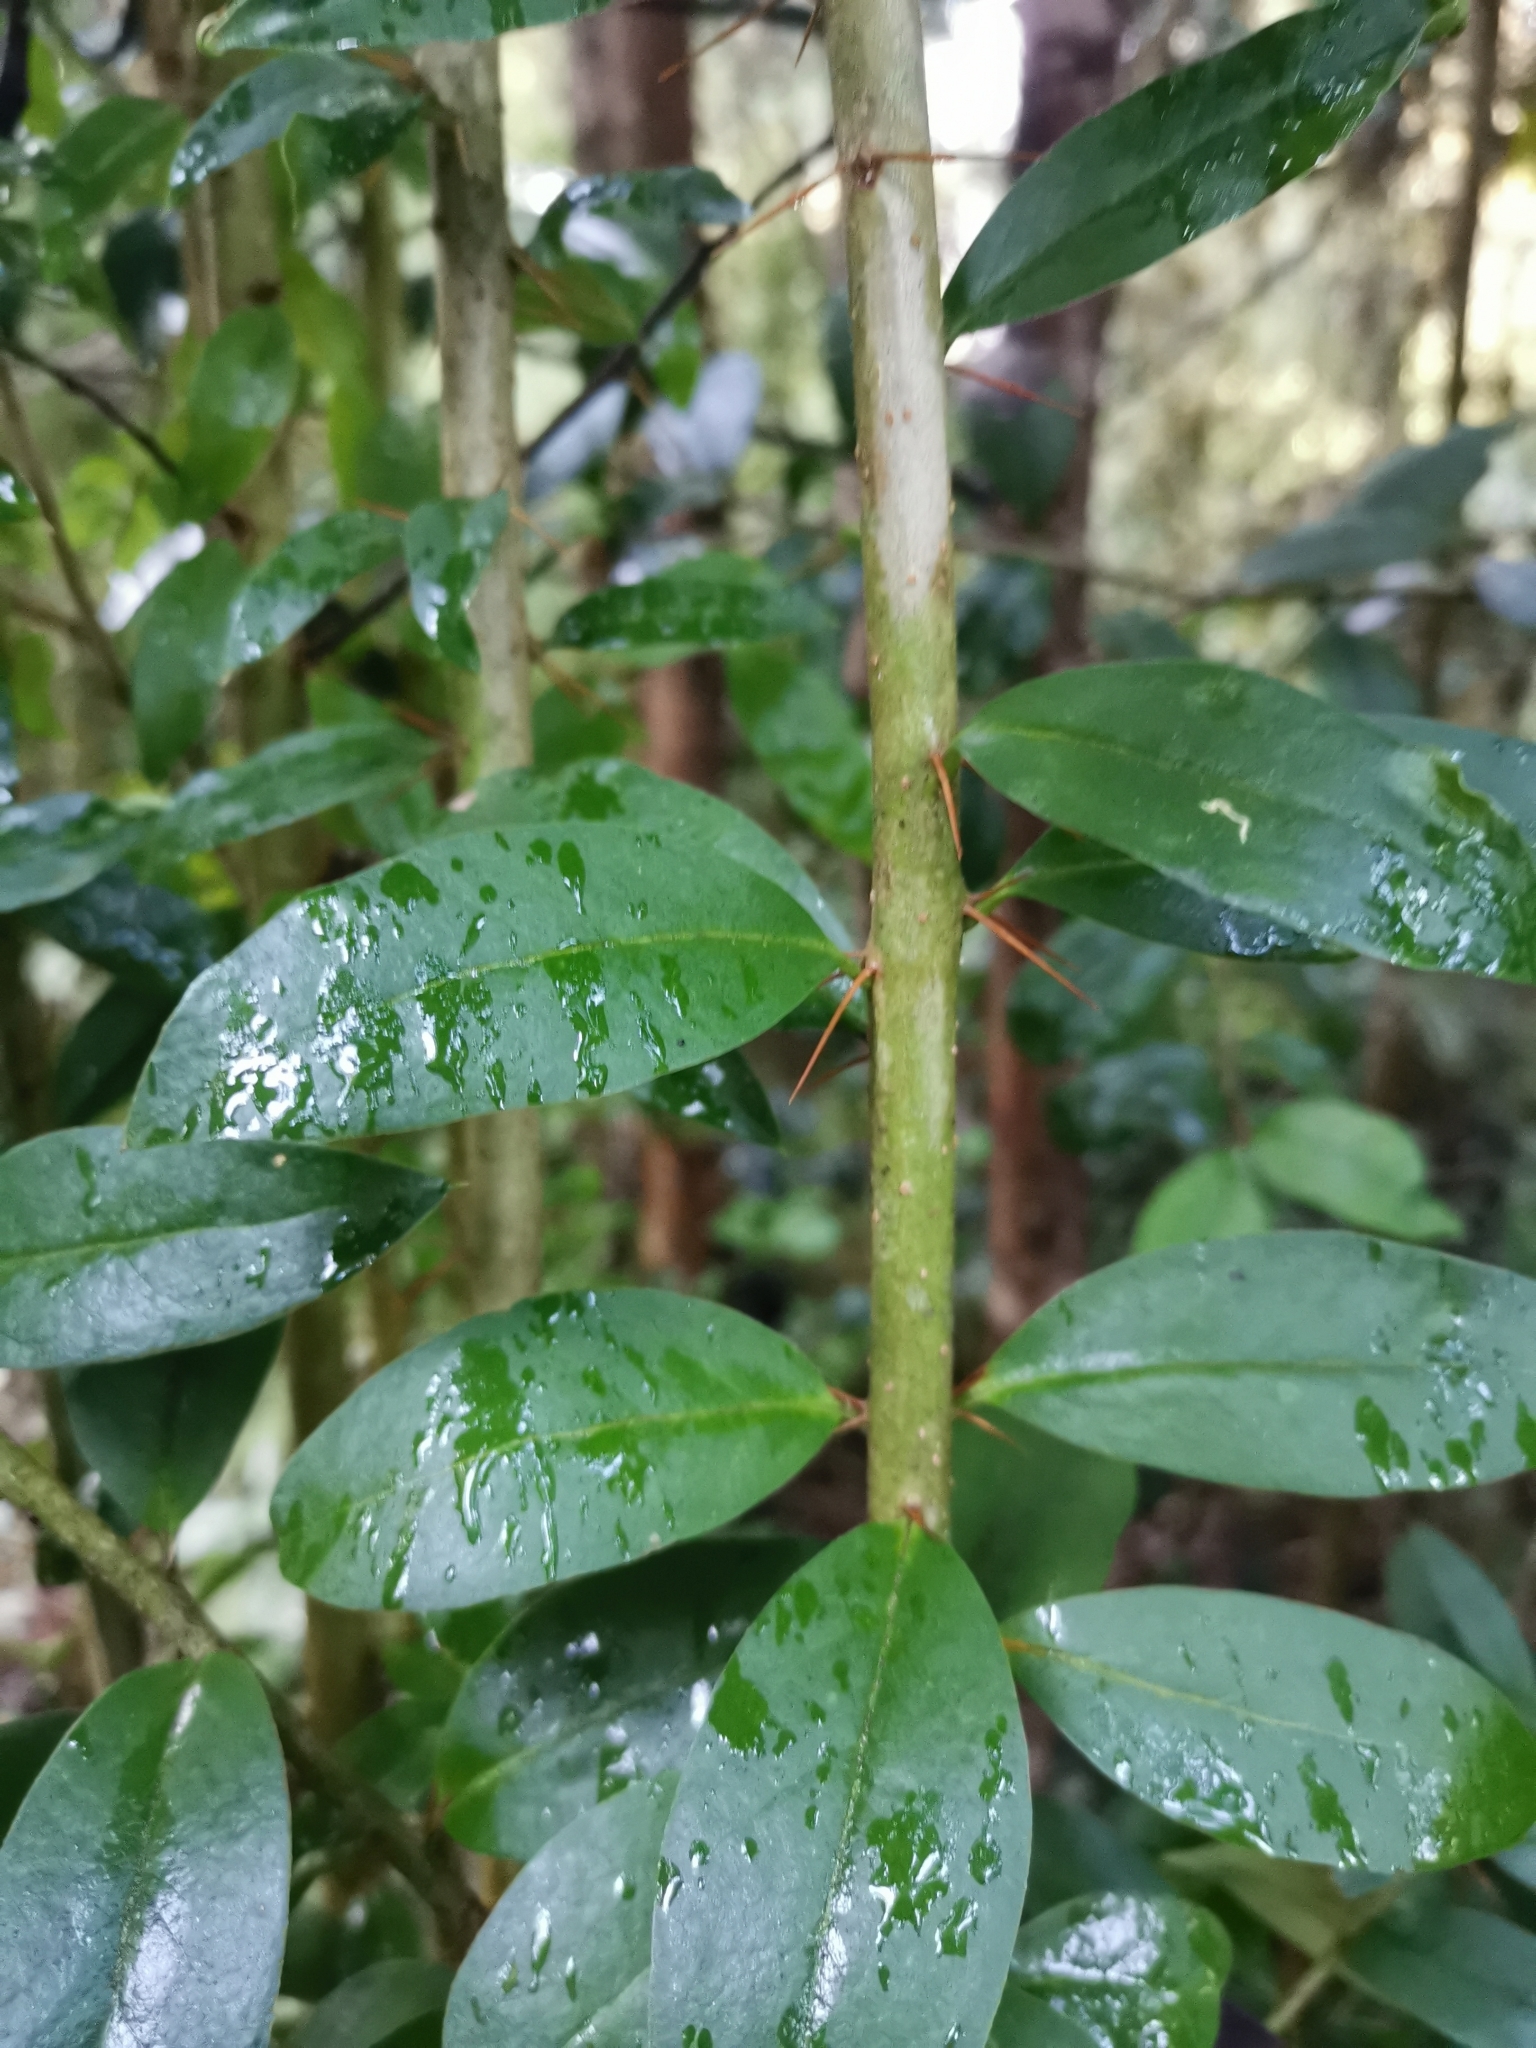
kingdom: Plantae
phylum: Tracheophyta
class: Magnoliopsida
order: Asterales
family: Asteraceae
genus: Archidasyphyllum
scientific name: Archidasyphyllum diacanthoides
